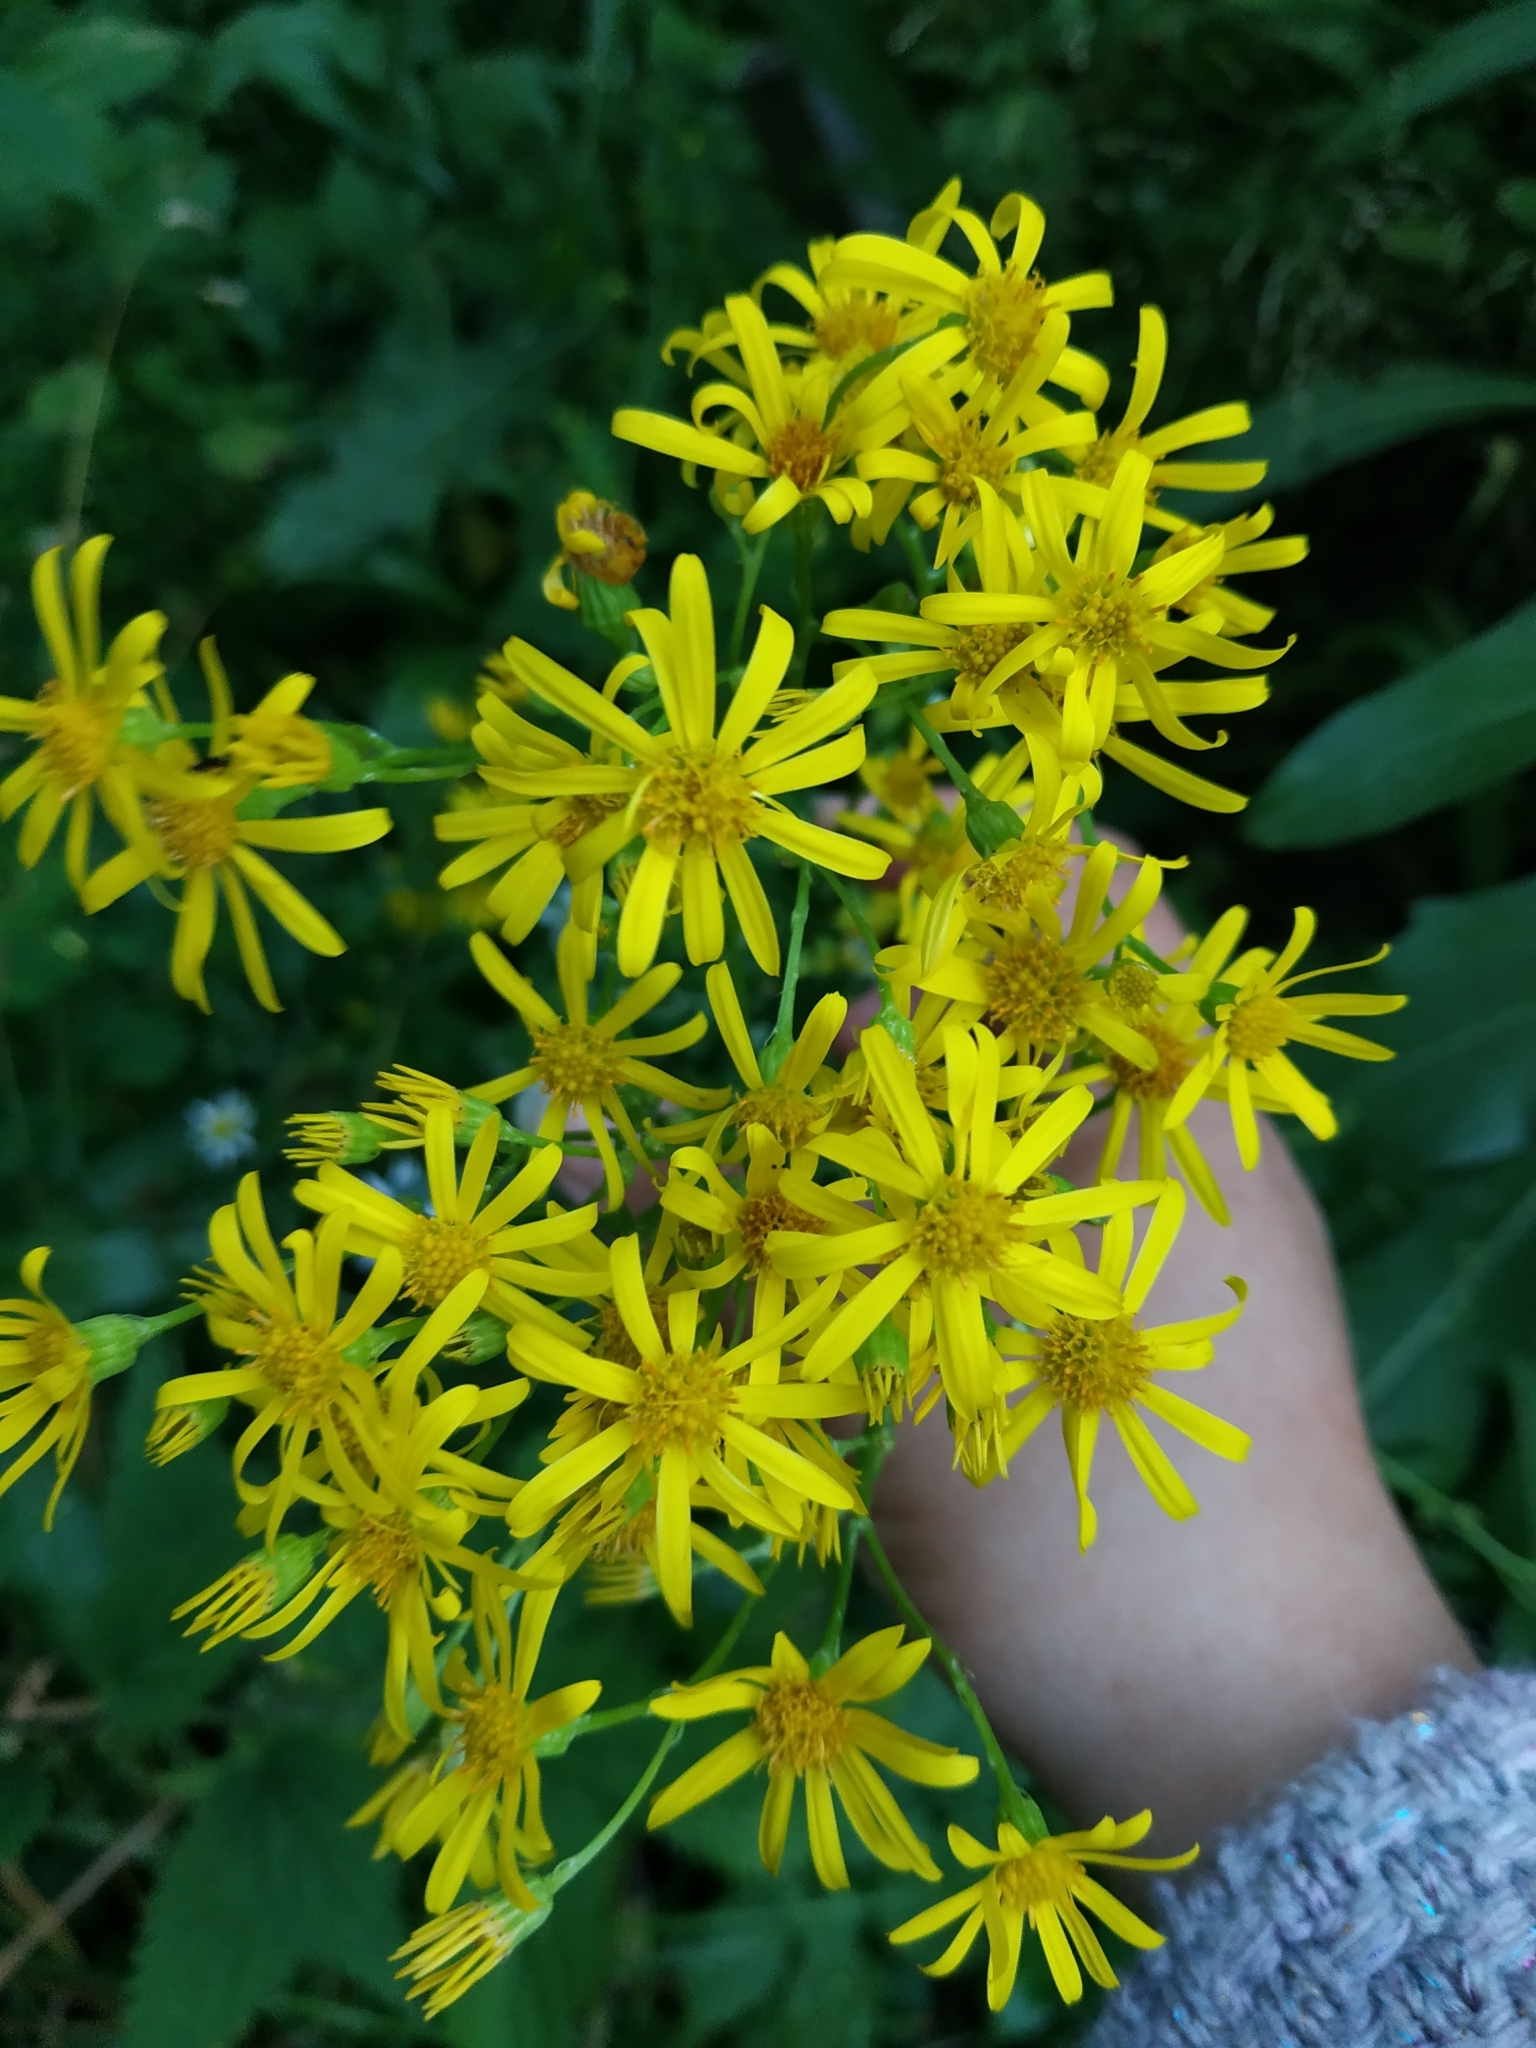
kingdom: Plantae
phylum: Tracheophyta
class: Magnoliopsida
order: Asterales
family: Asteraceae
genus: Jacobaea
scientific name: Jacobaea vulgaris
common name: Stinking willie
